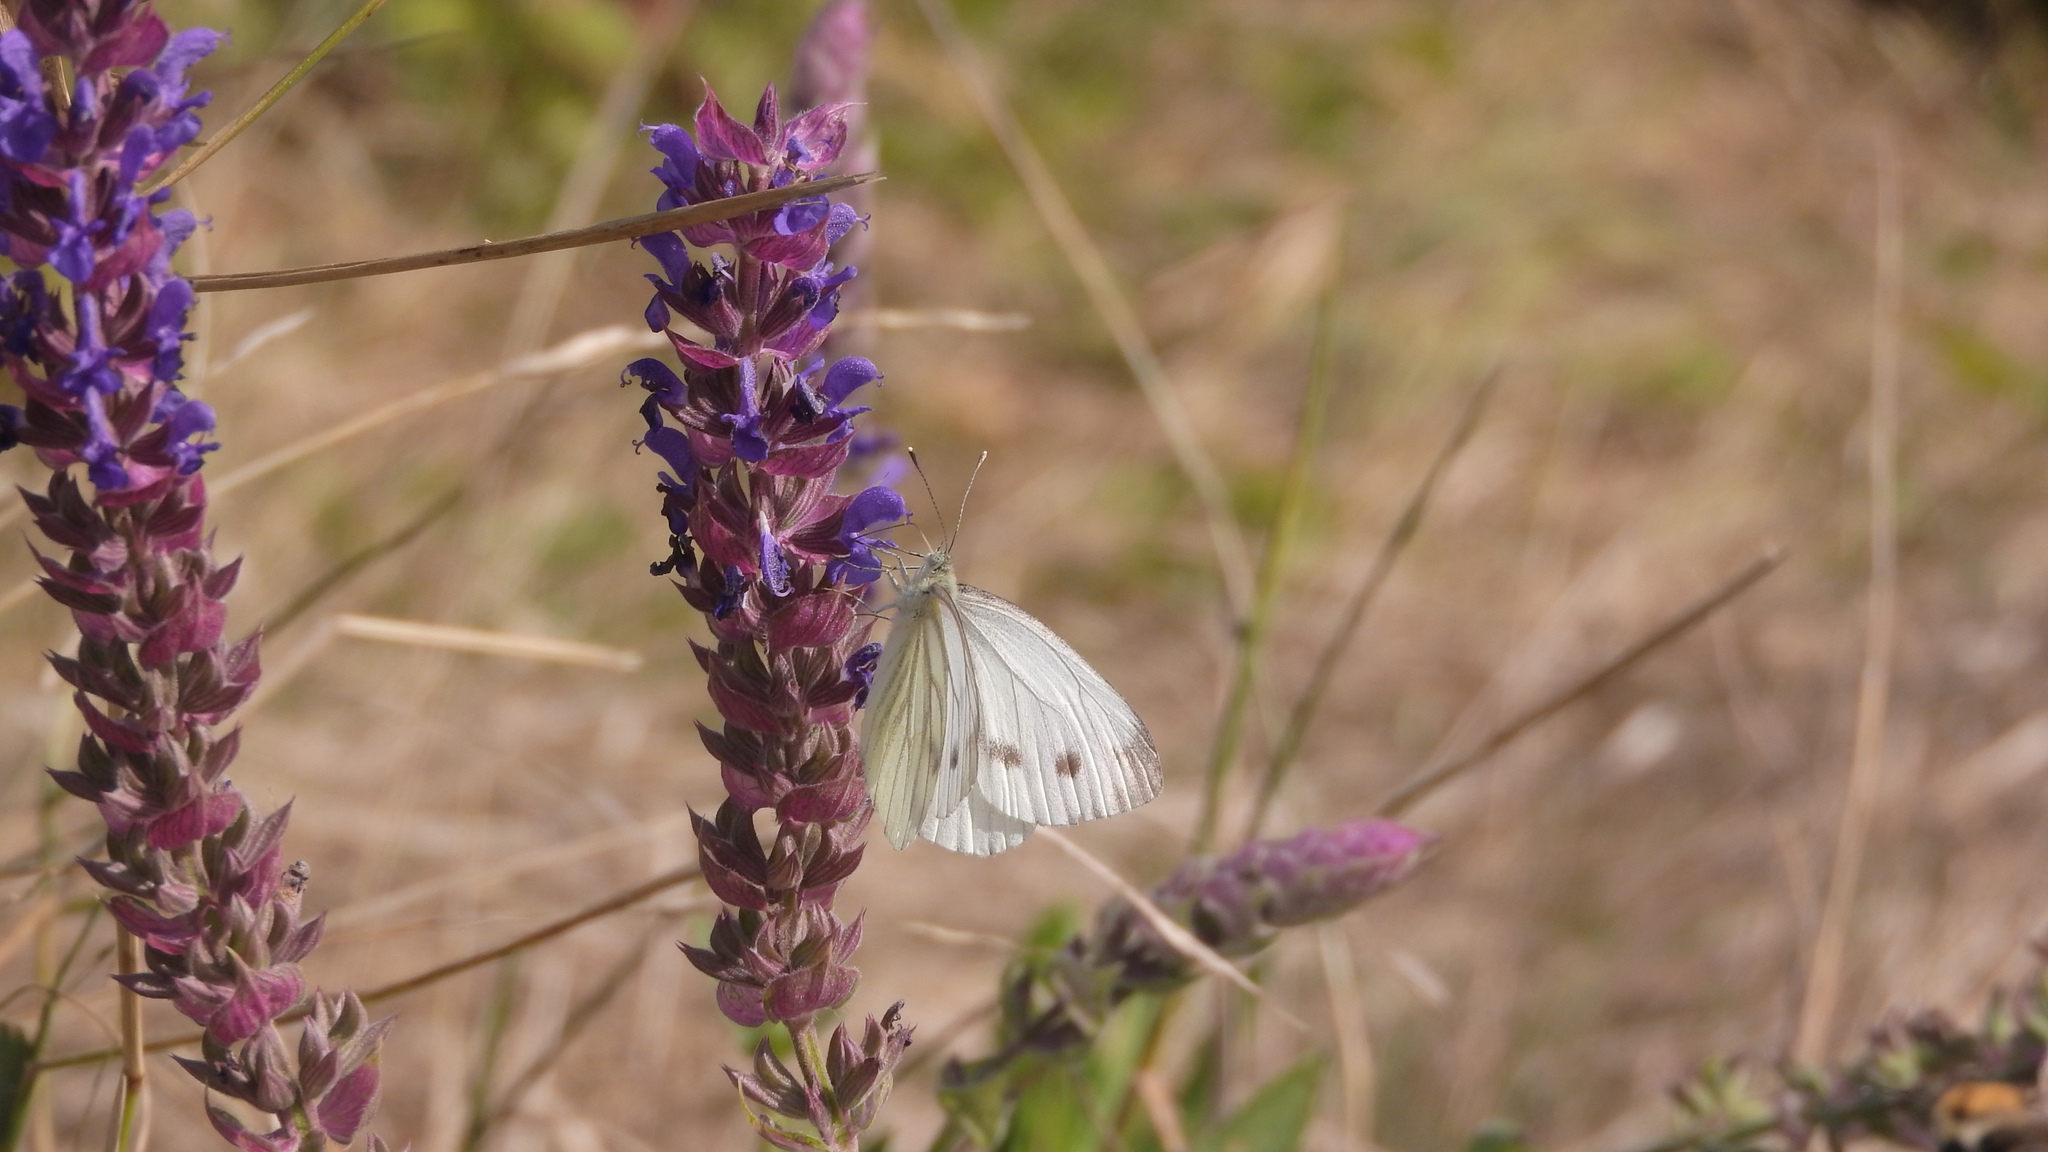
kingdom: Animalia
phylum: Arthropoda
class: Insecta
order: Lepidoptera
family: Pieridae
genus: Pieris
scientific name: Pieris napi
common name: Green-veined white
